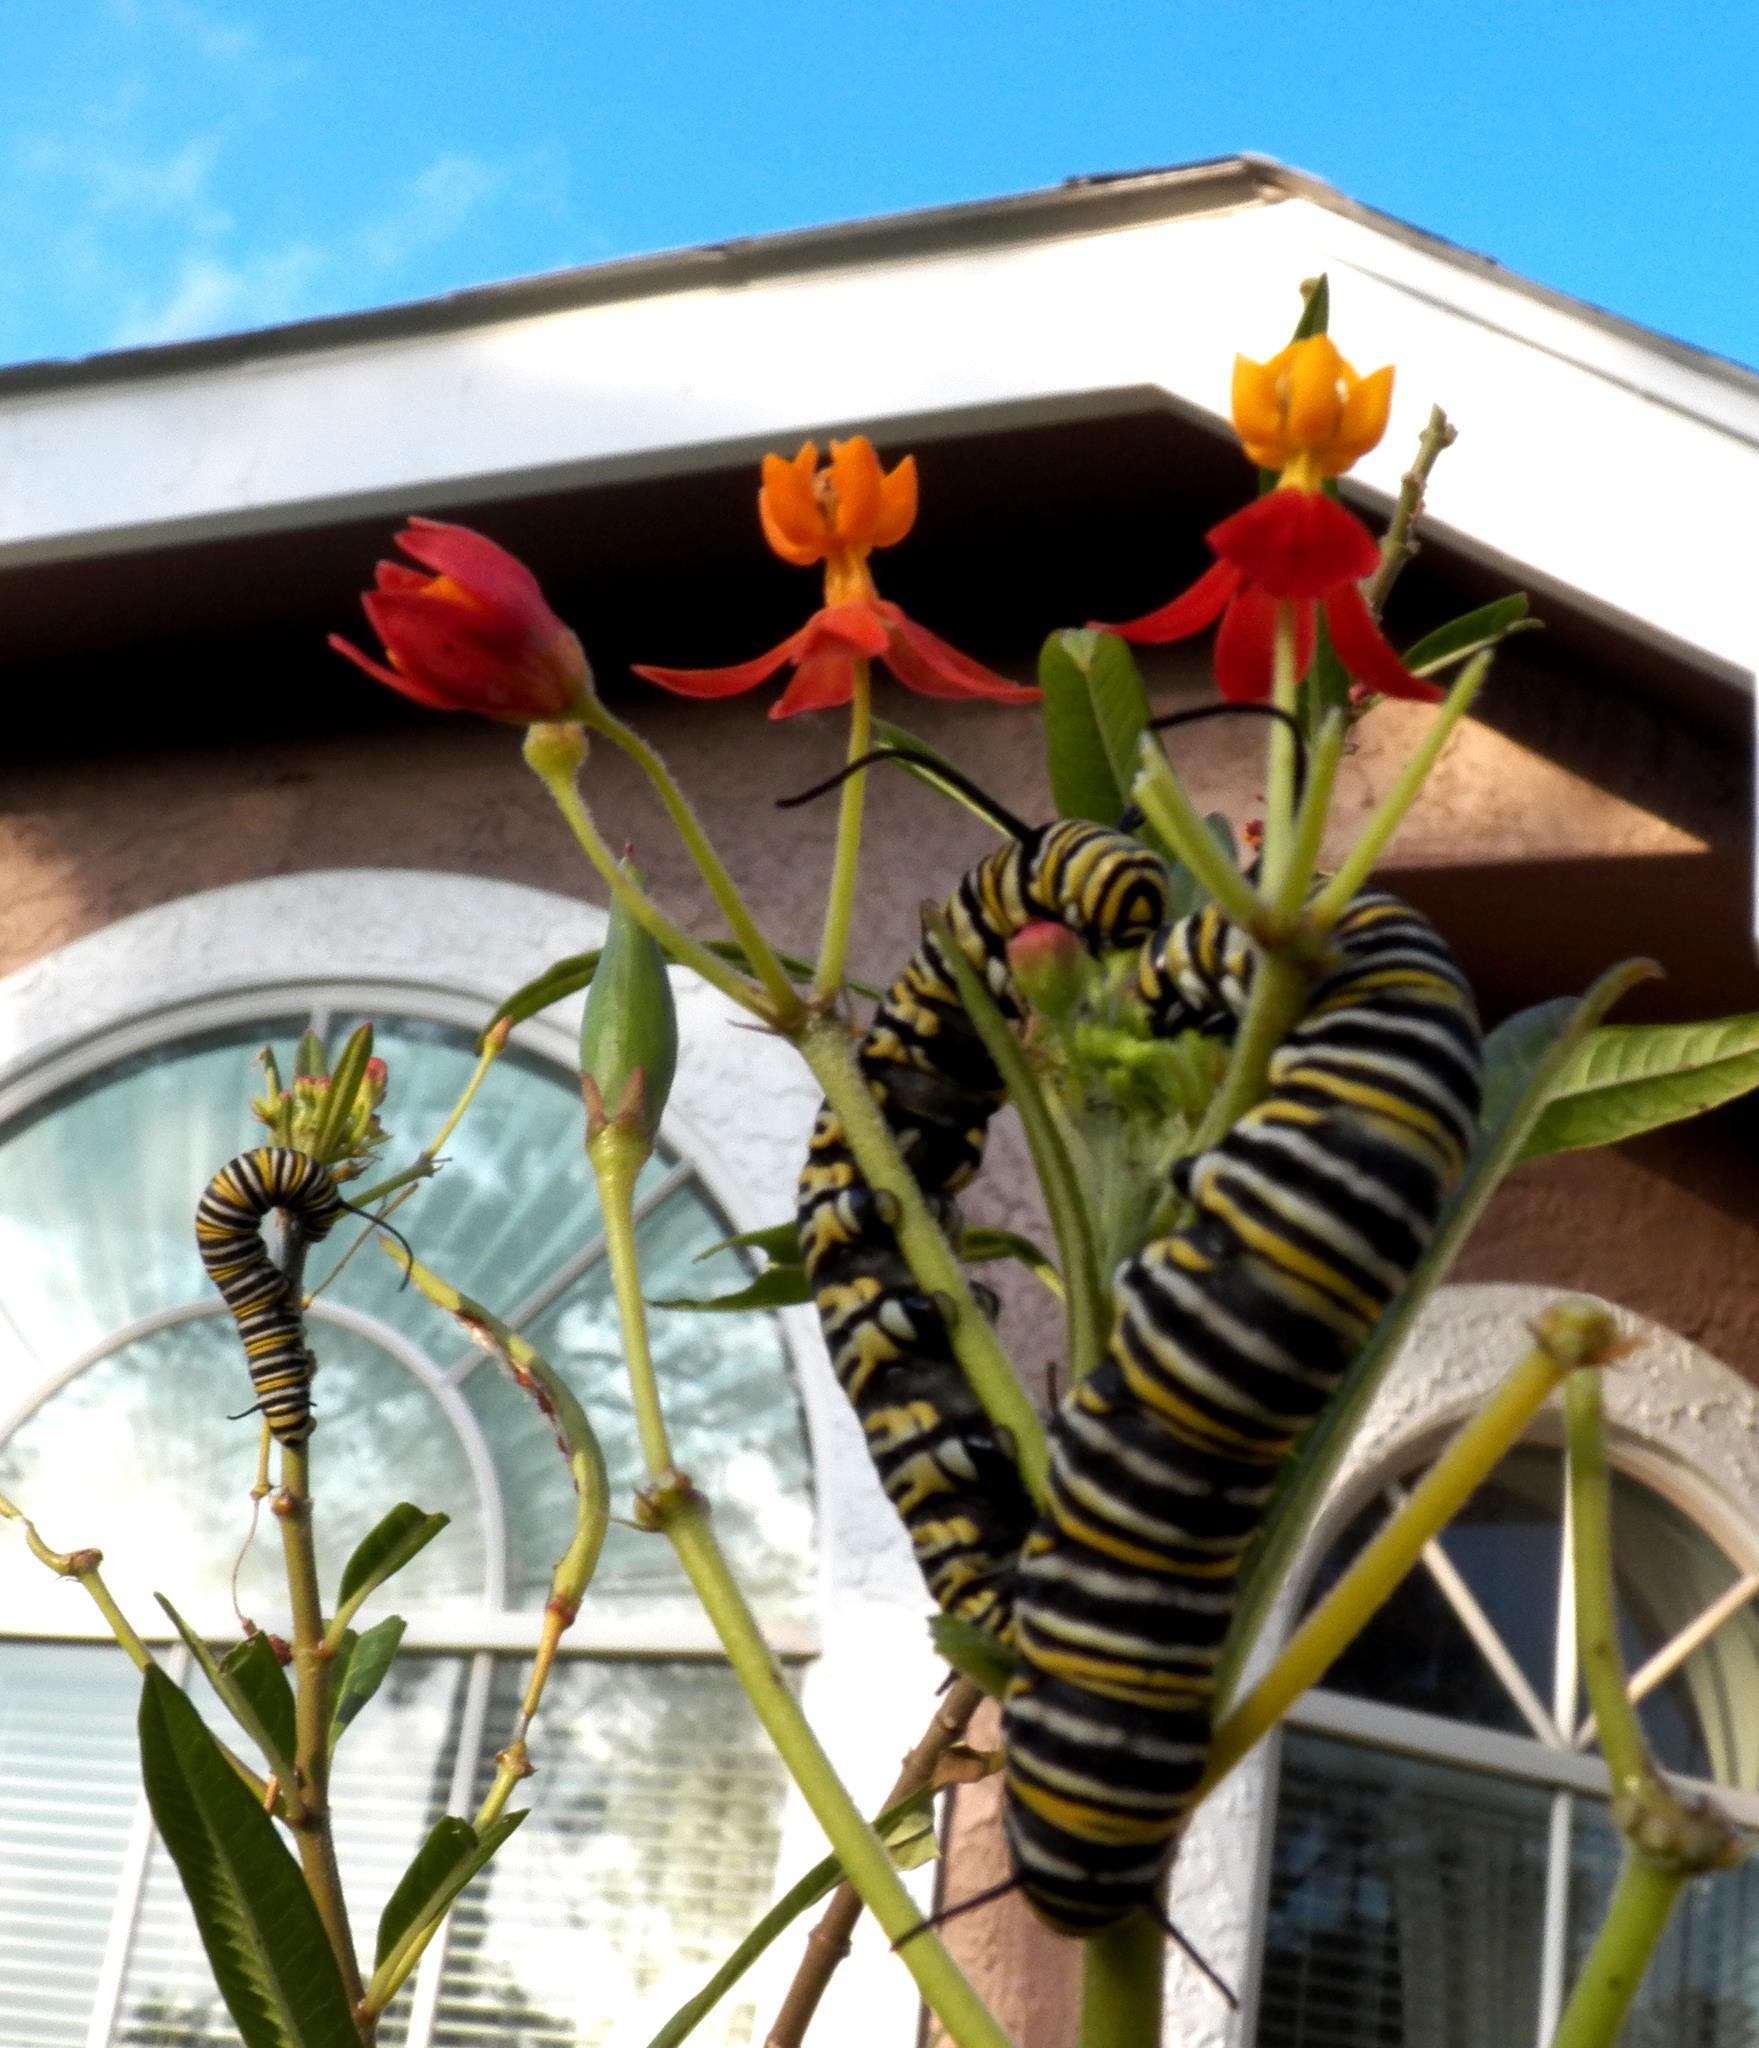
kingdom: Animalia
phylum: Arthropoda
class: Insecta
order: Lepidoptera
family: Nymphalidae
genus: Danaus
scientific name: Danaus plexippus
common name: Monarch
